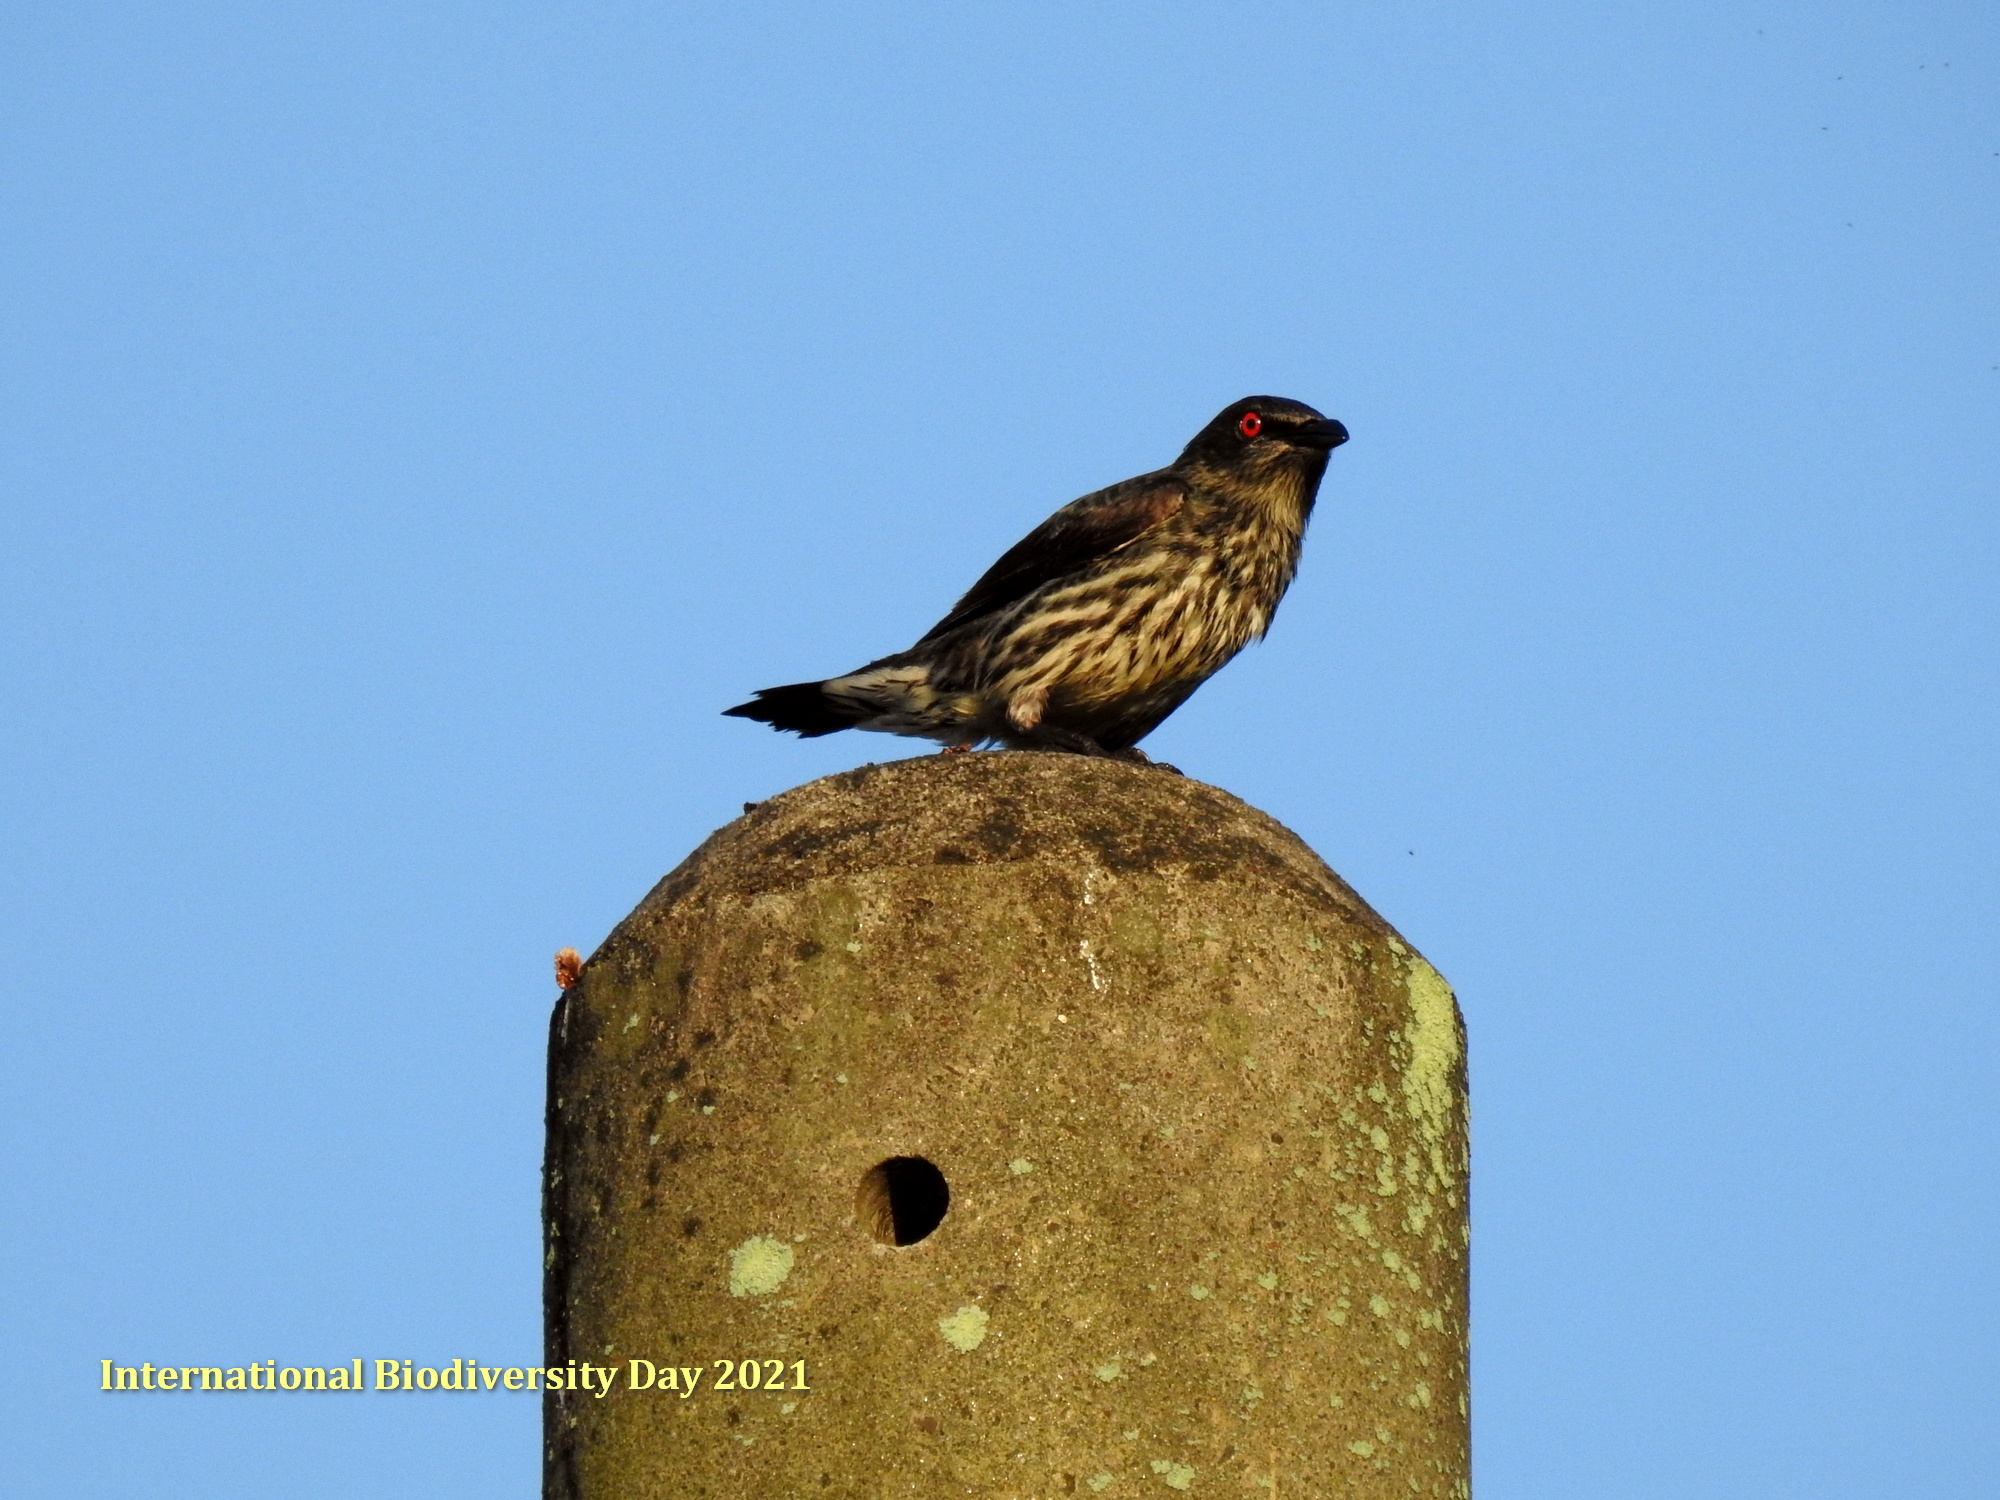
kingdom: Animalia
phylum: Chordata
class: Aves
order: Passeriformes
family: Sturnidae
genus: Aplonis
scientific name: Aplonis panayensis
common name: Asian glossy starling
